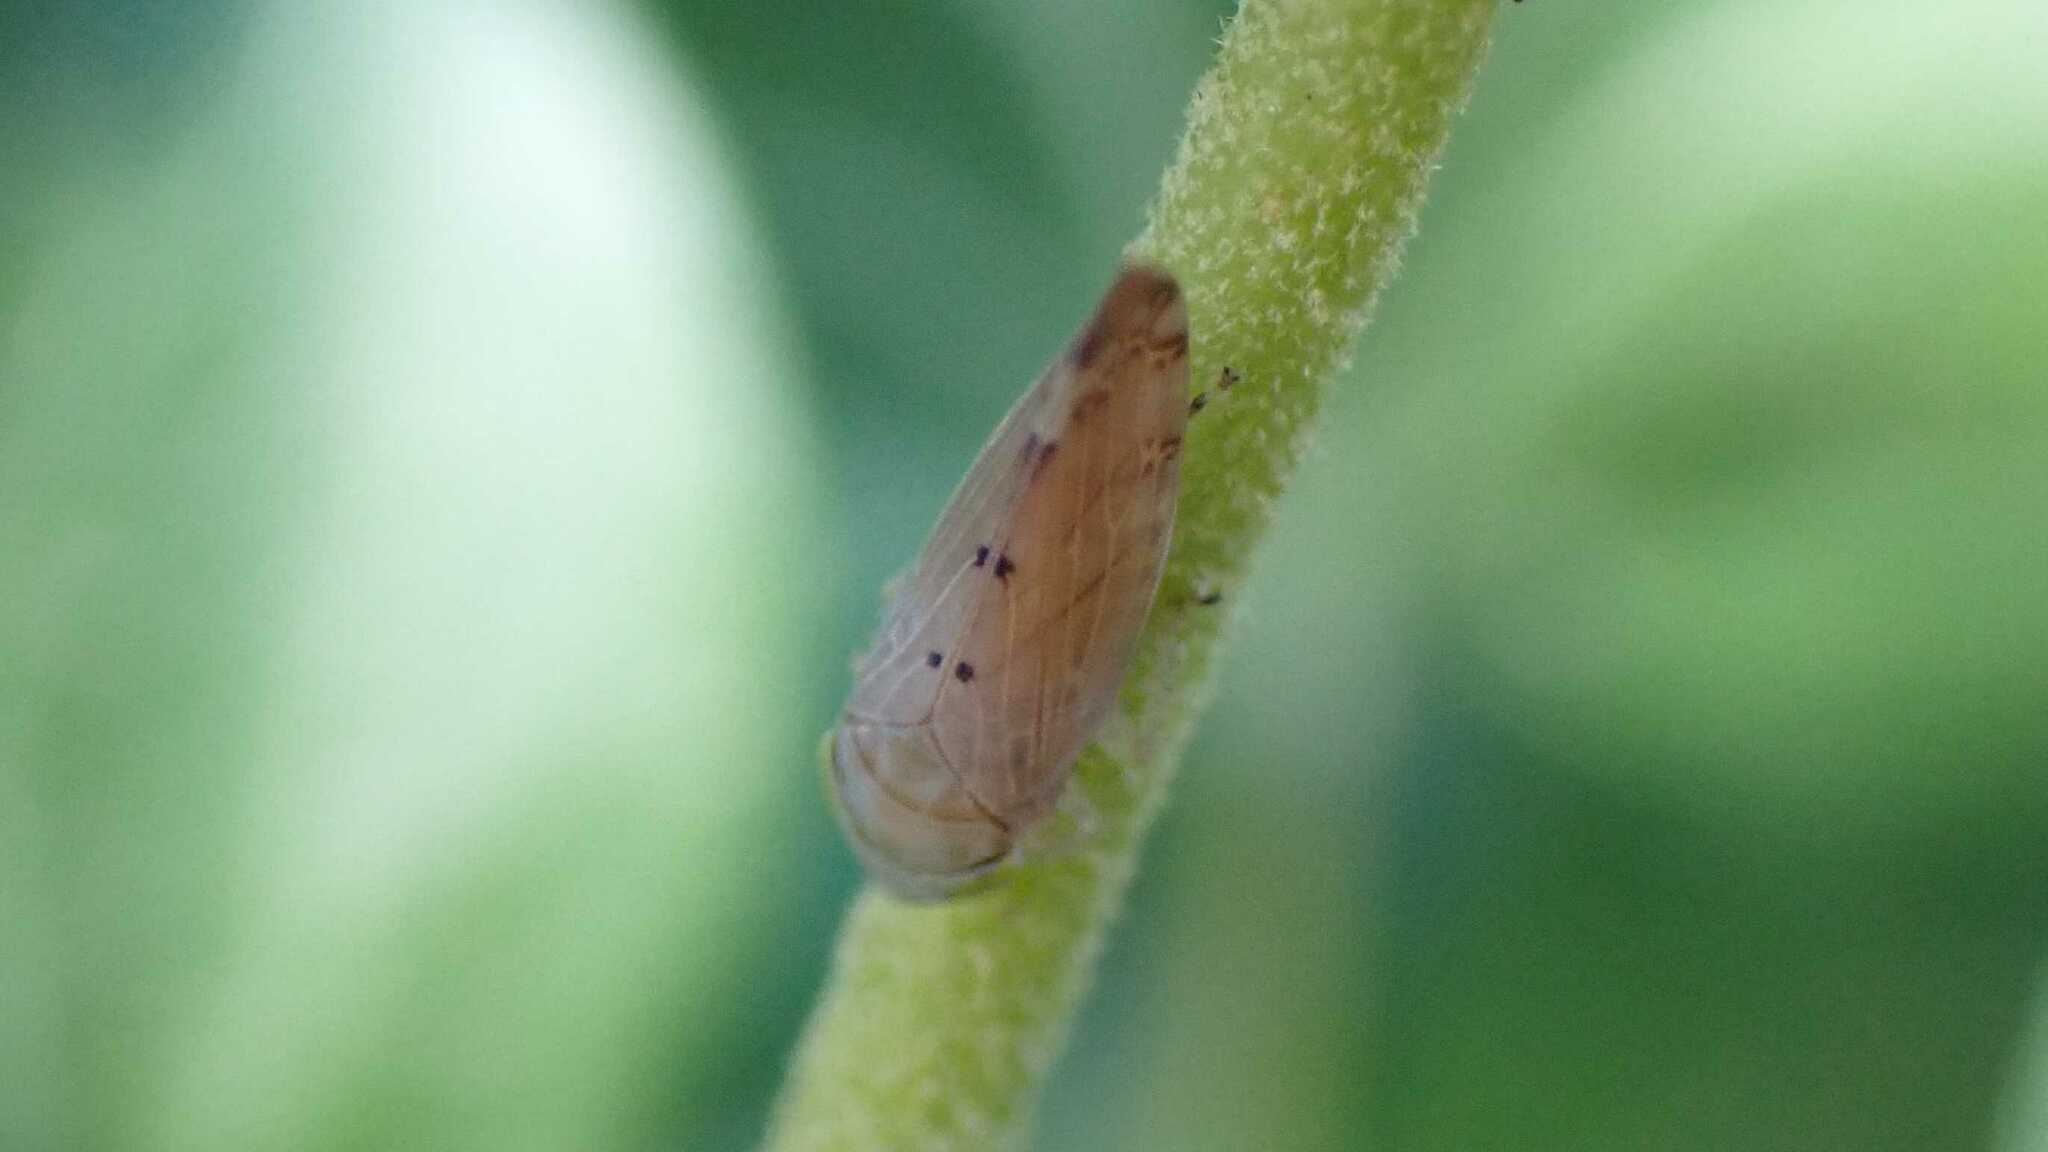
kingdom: Animalia
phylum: Arthropoda
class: Insecta
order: Hemiptera
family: Cicadellidae
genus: Synophropsis
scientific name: Synophropsis lauri
